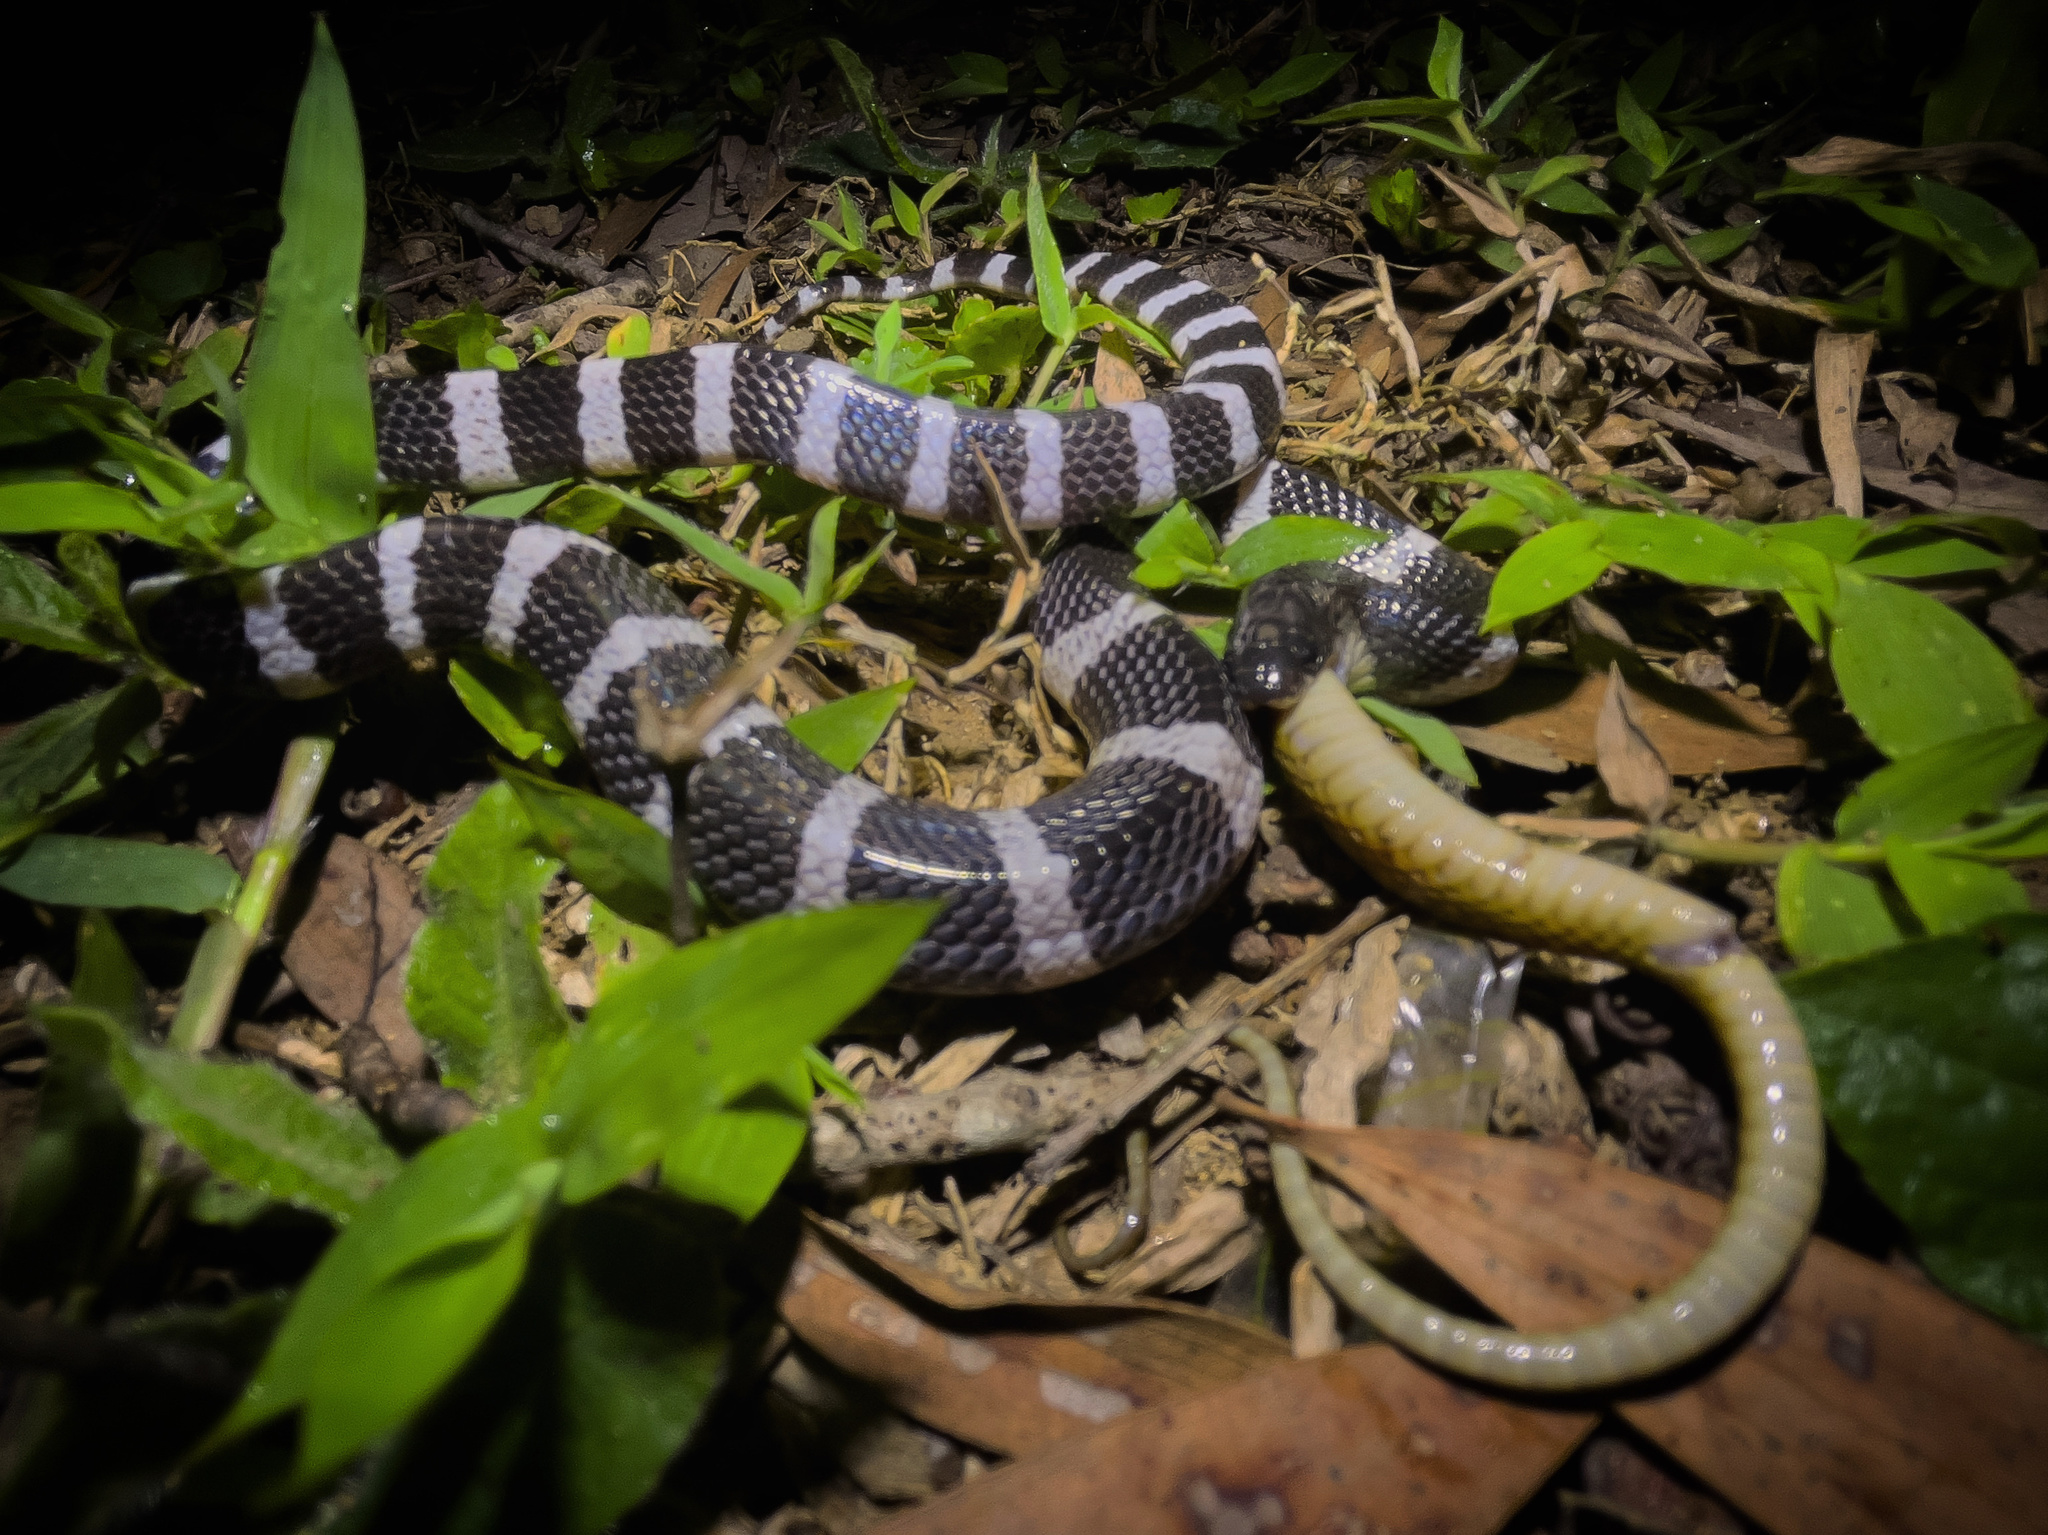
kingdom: Animalia
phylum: Chordata
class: Squamata
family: Elapidae
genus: Bungarus
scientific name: Bungarus multicinctus
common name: Many-banded krait
